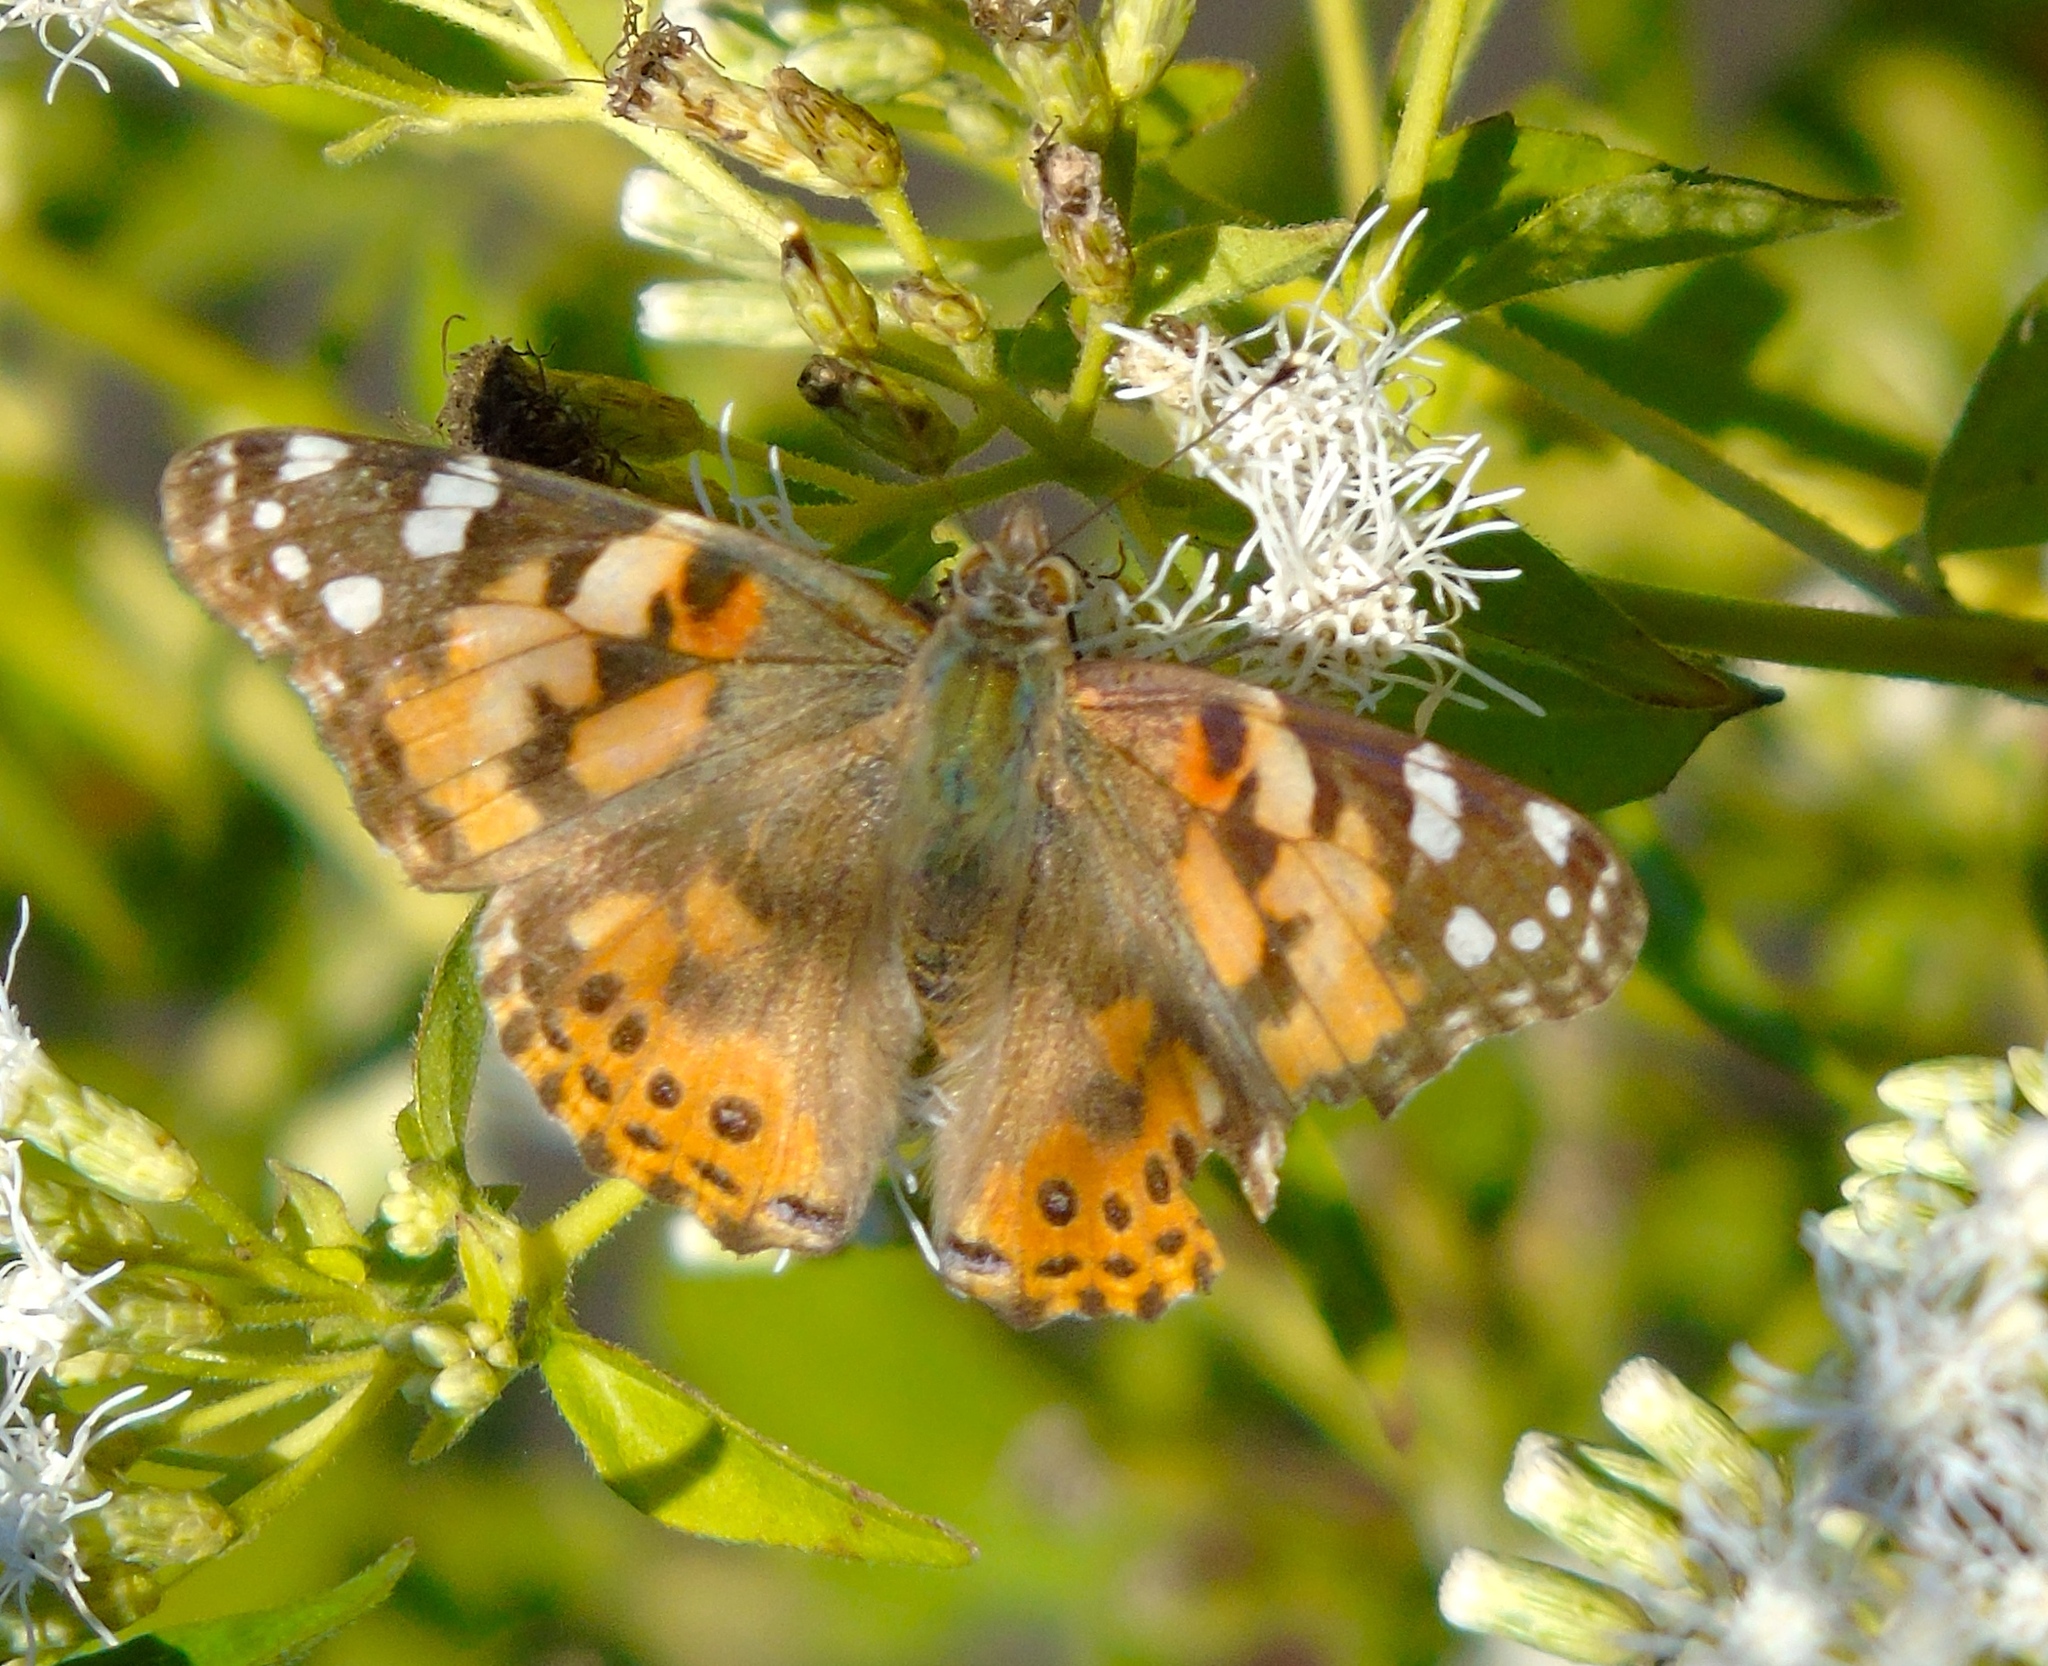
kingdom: Animalia
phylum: Arthropoda
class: Insecta
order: Lepidoptera
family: Nymphalidae
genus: Vanessa
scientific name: Vanessa cardui
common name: Painted lady
